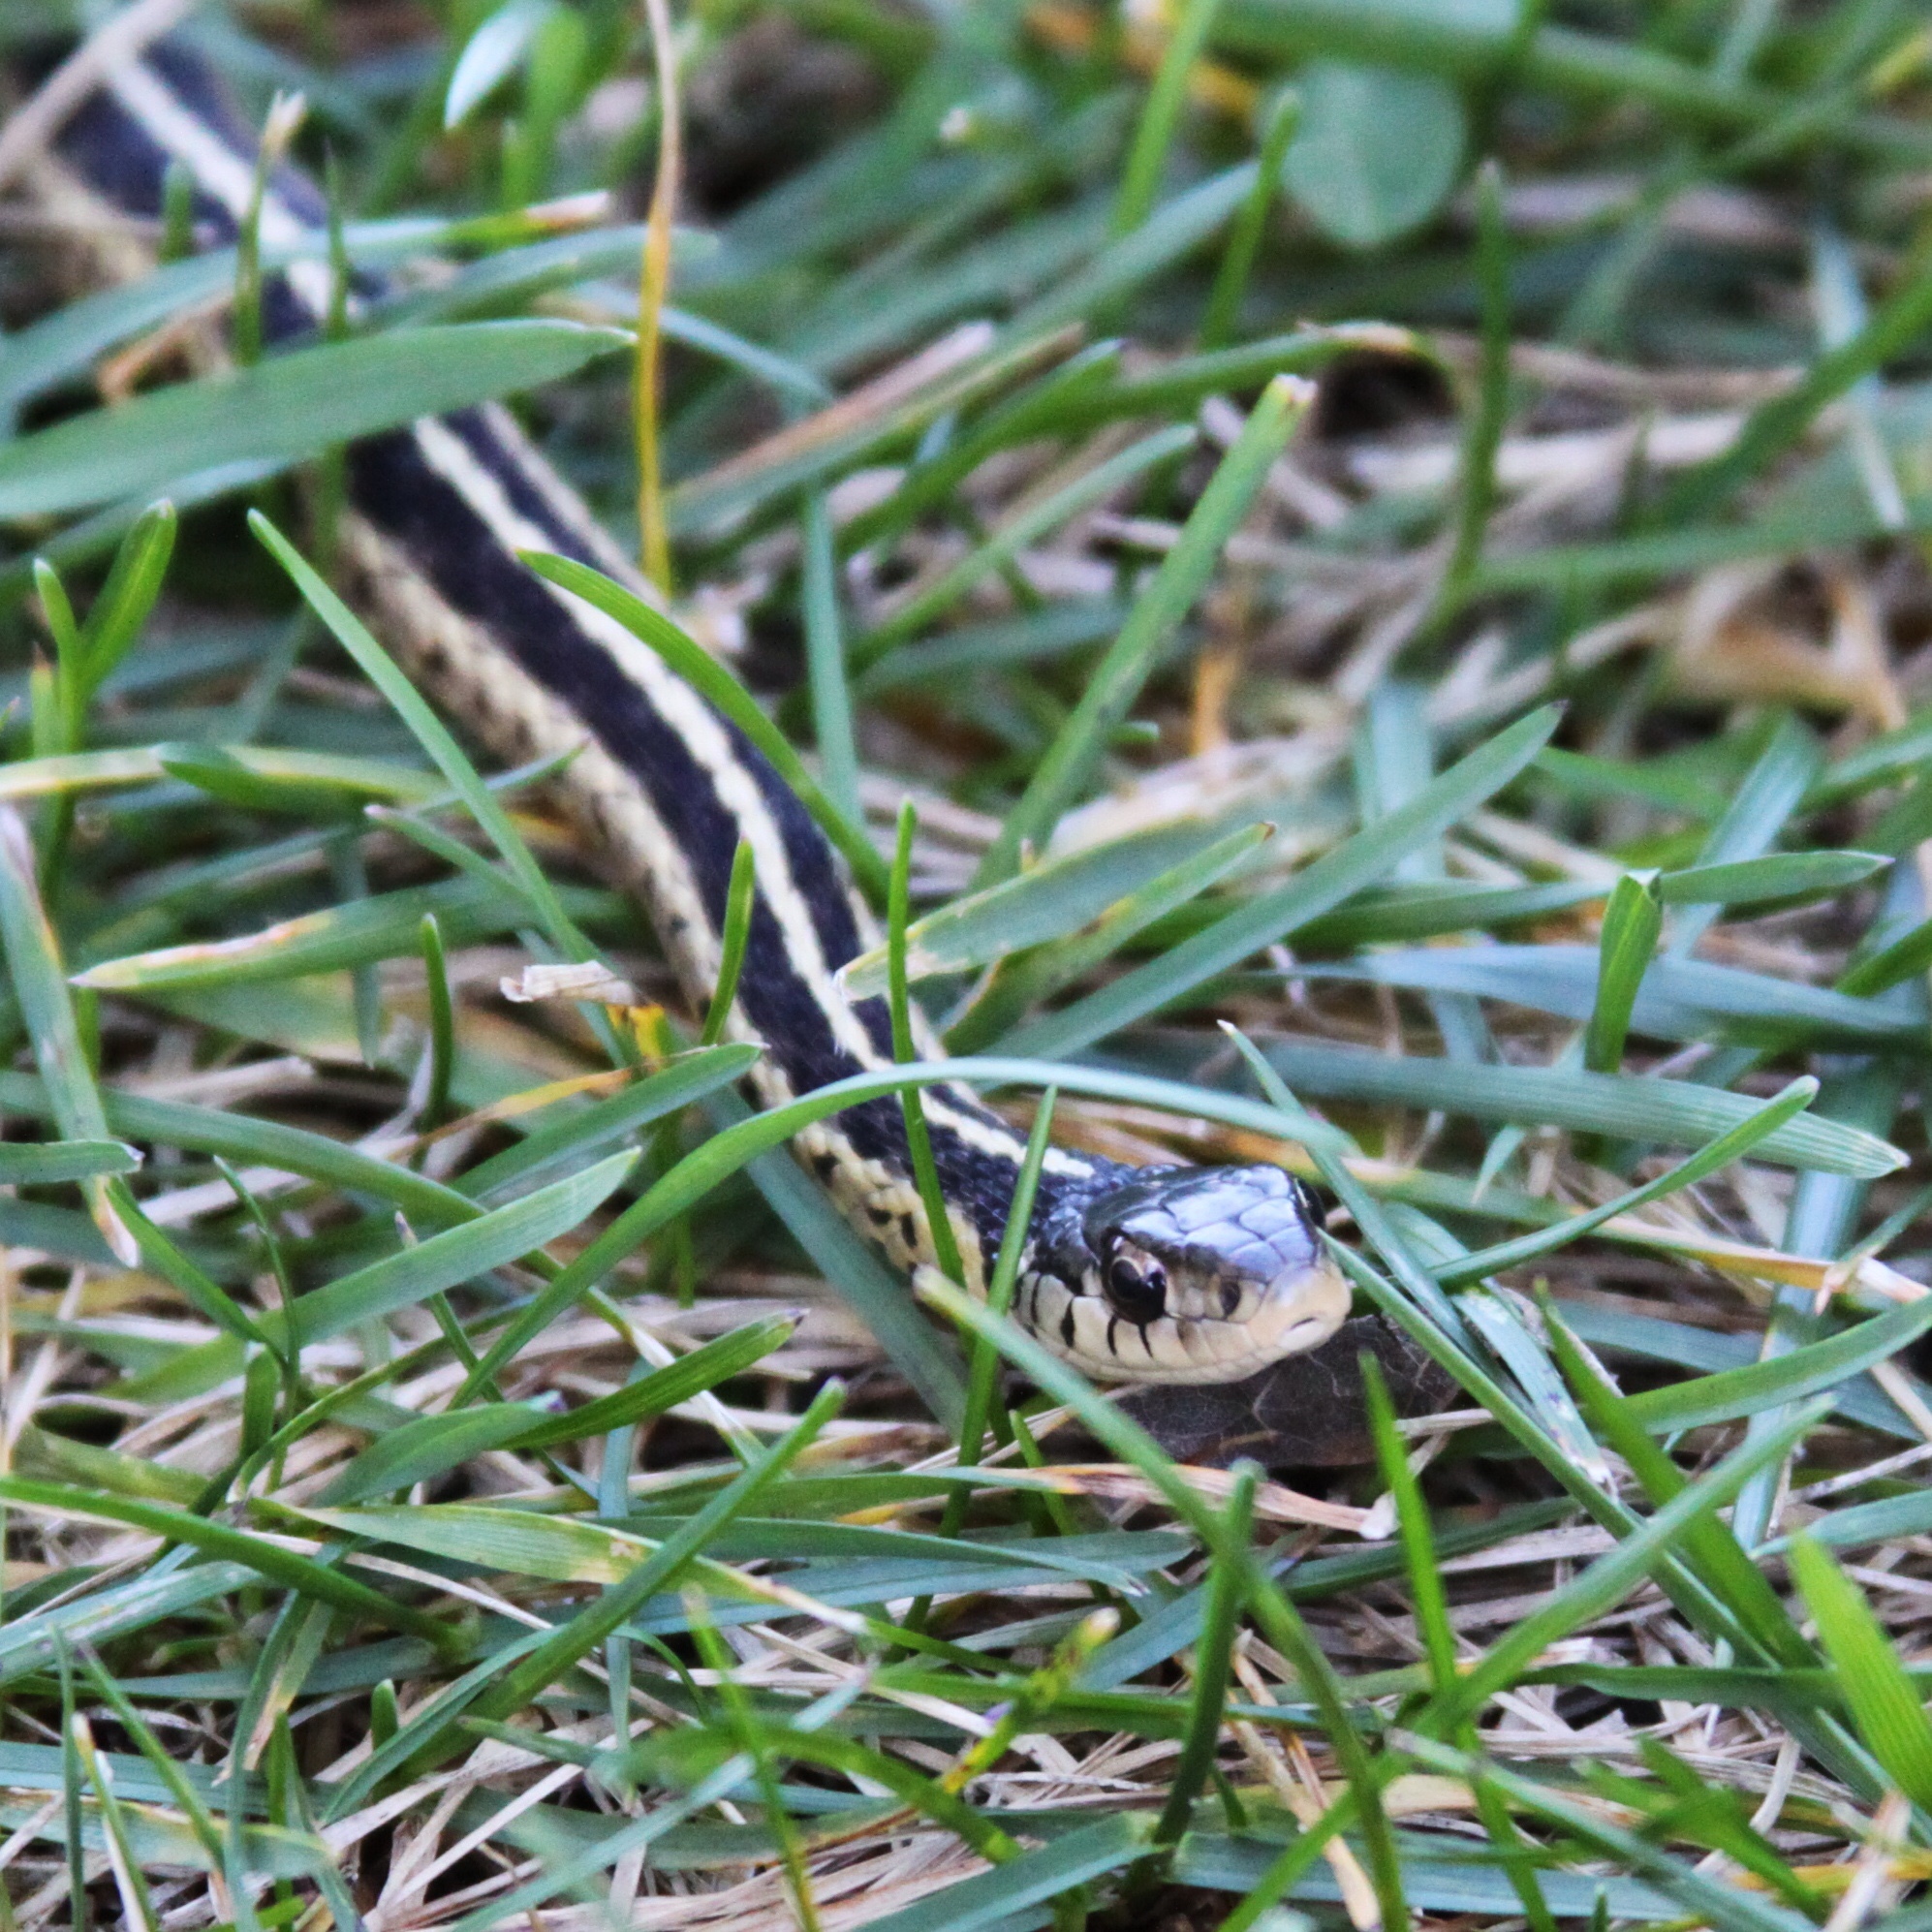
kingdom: Animalia
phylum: Chordata
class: Squamata
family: Colubridae
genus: Thamnophis
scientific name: Thamnophis sirtalis
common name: Common garter snake
